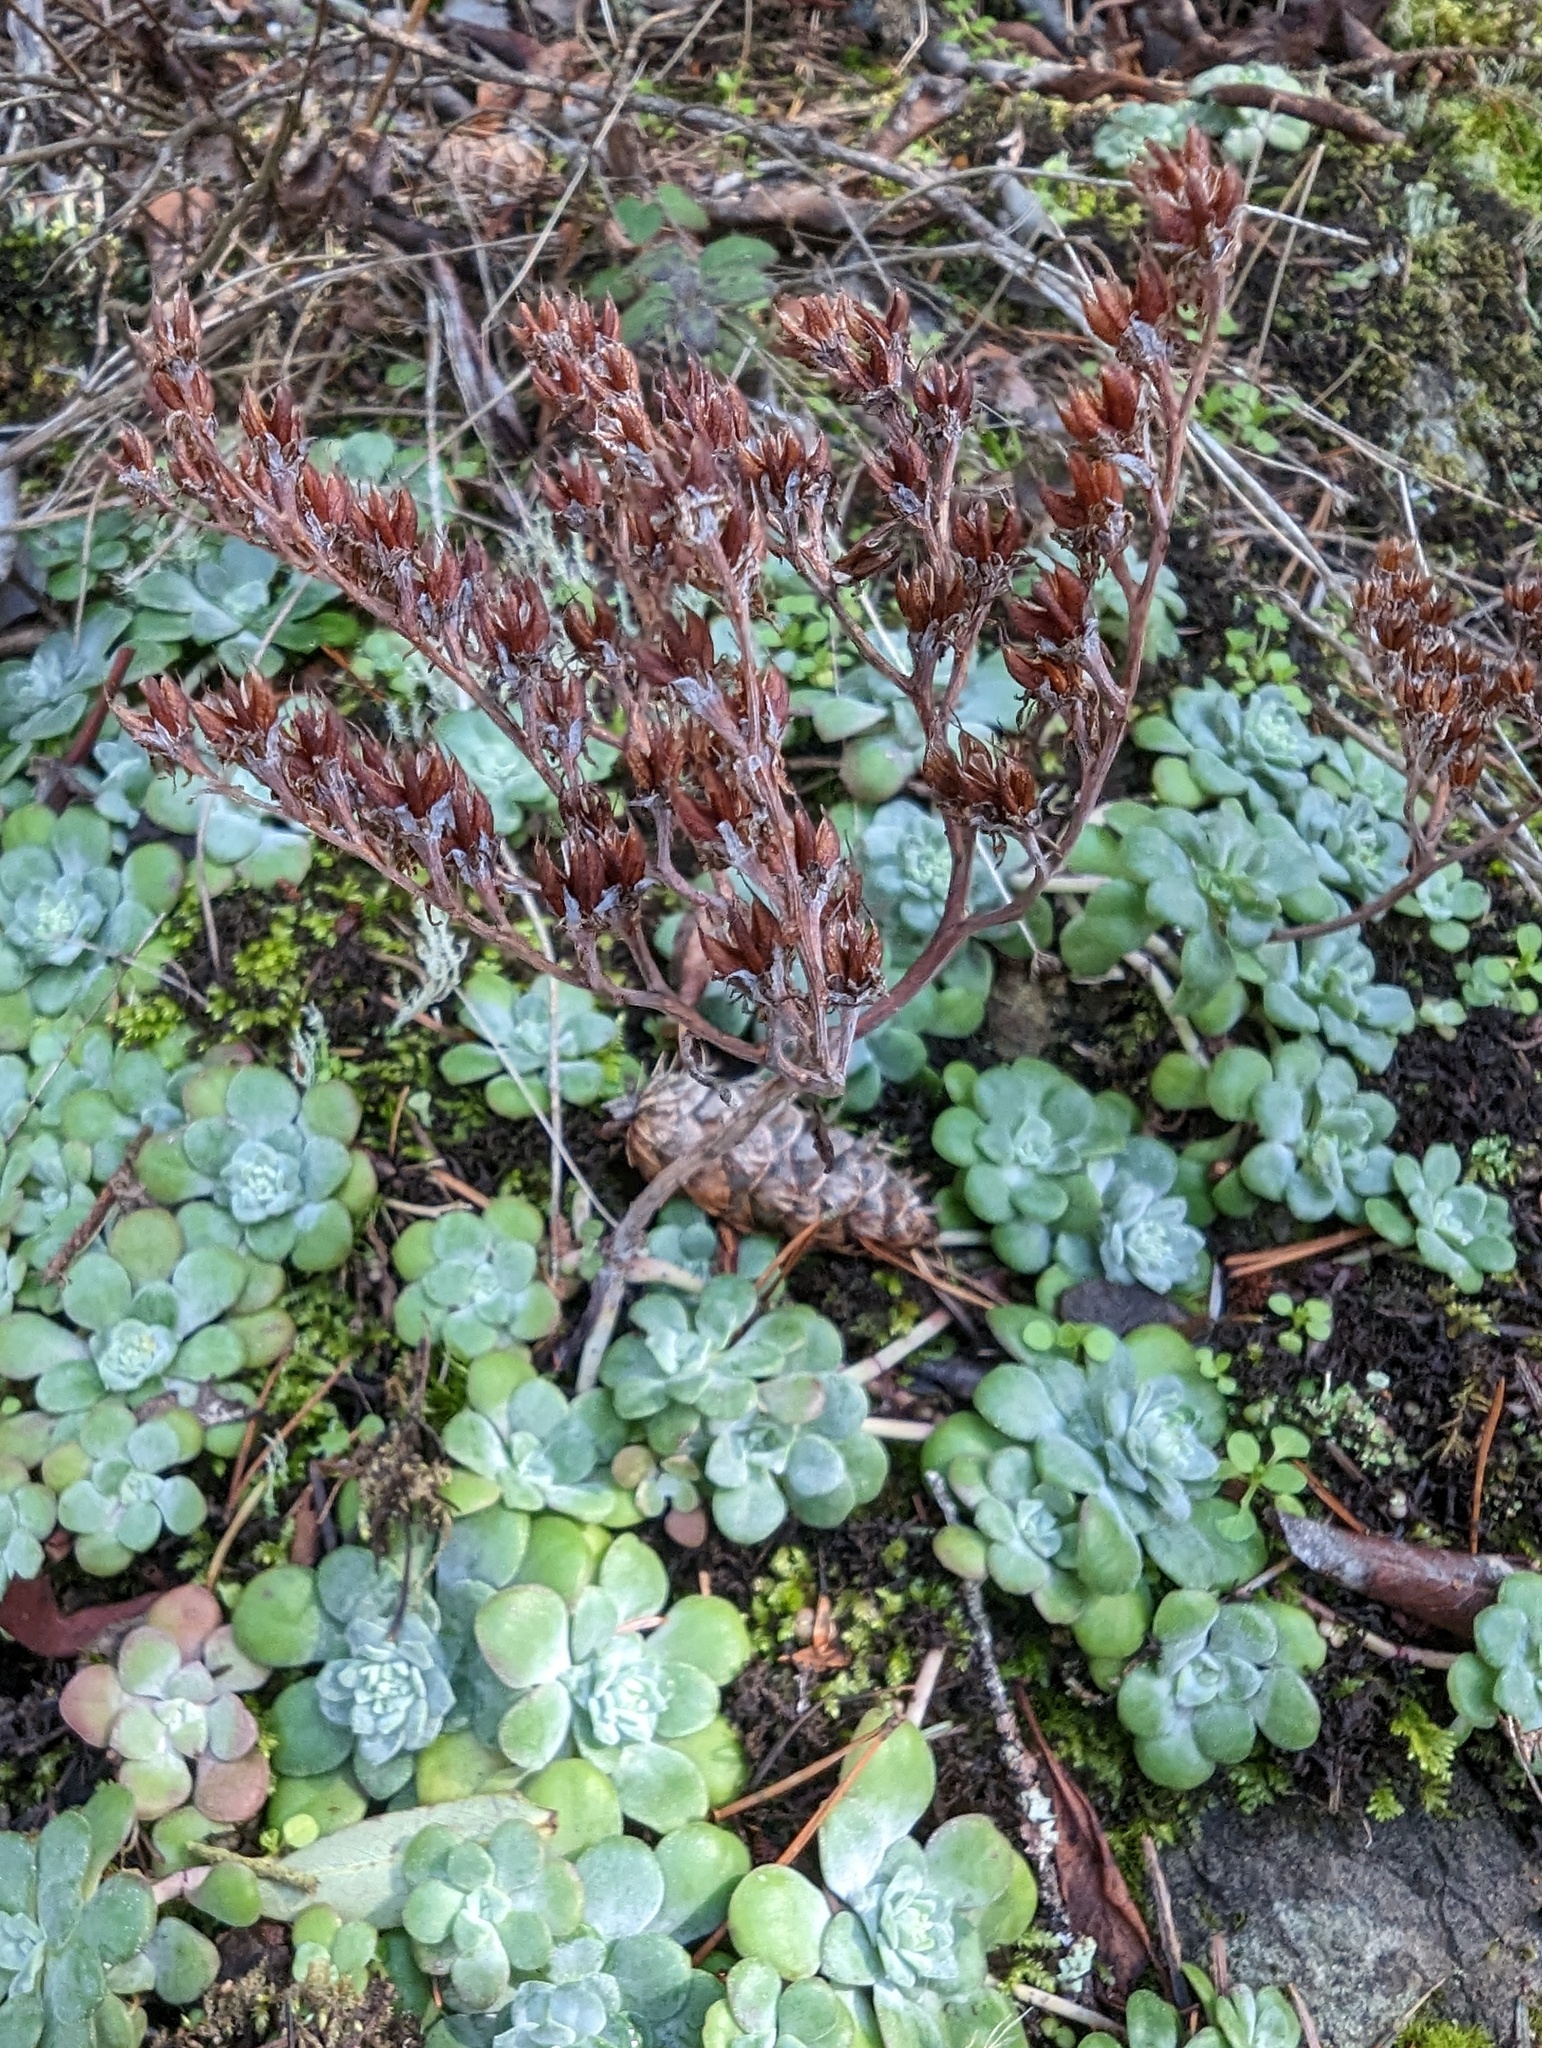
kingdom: Plantae
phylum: Tracheophyta
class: Magnoliopsida
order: Saxifragales
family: Crassulaceae
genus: Sedum
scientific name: Sedum spathulifolium
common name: Colorado stonecrop
